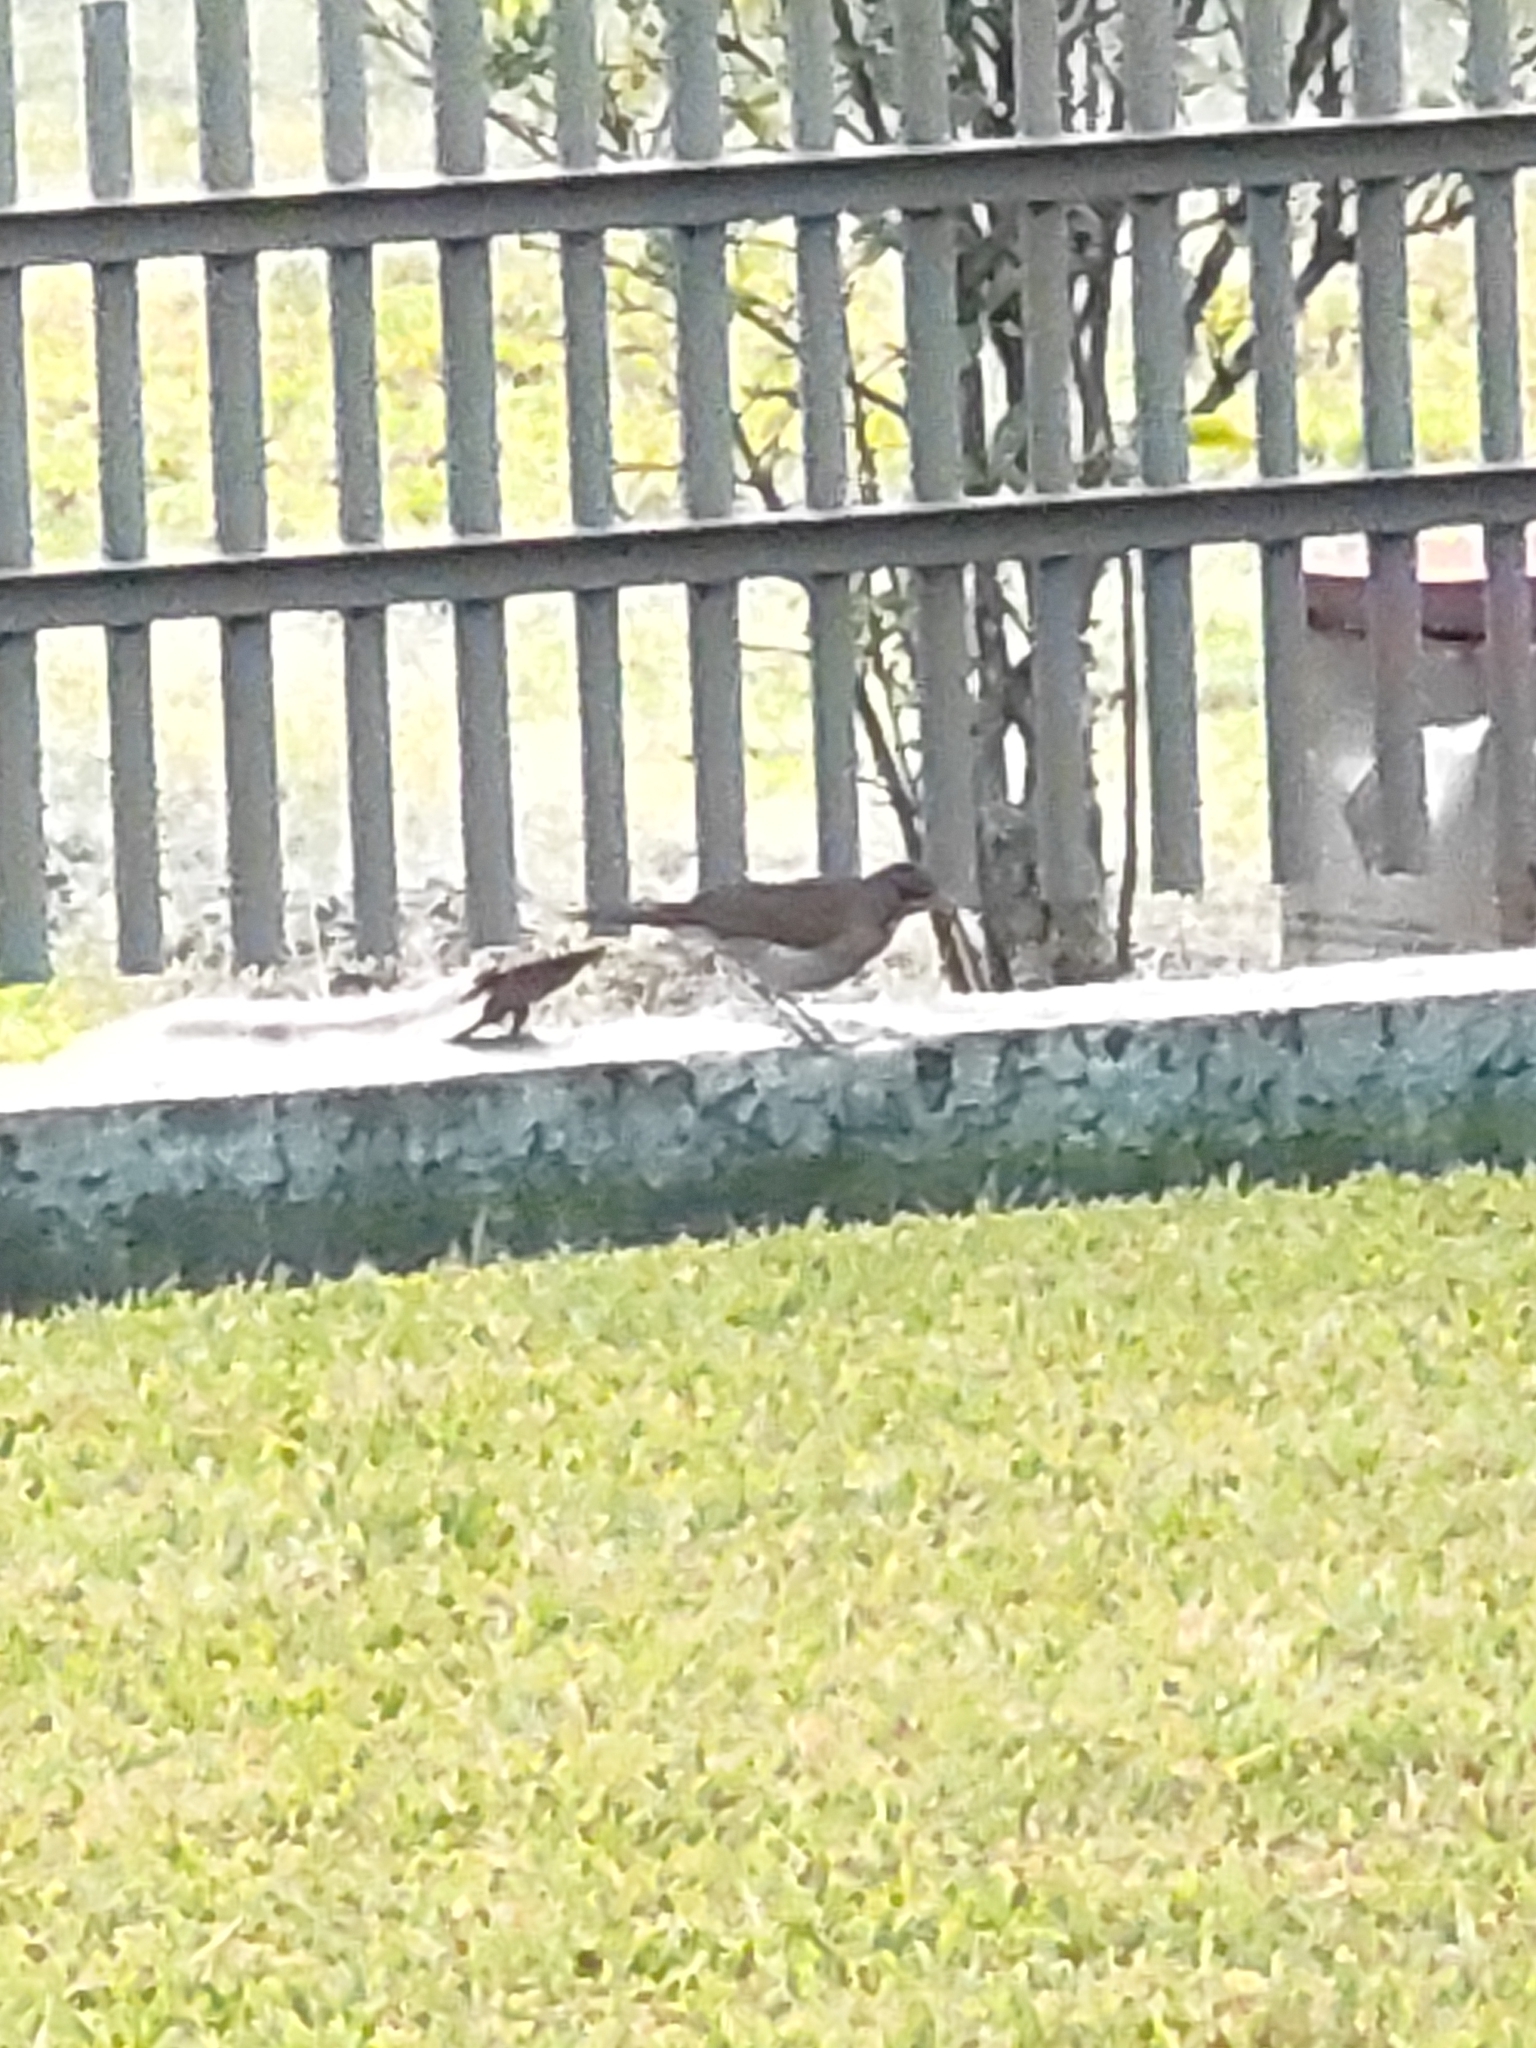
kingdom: Animalia
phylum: Chordata
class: Aves
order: Passeriformes
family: Turdidae
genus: Turdus
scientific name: Turdus amaurochalinus
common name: Creamy-bellied thrush
